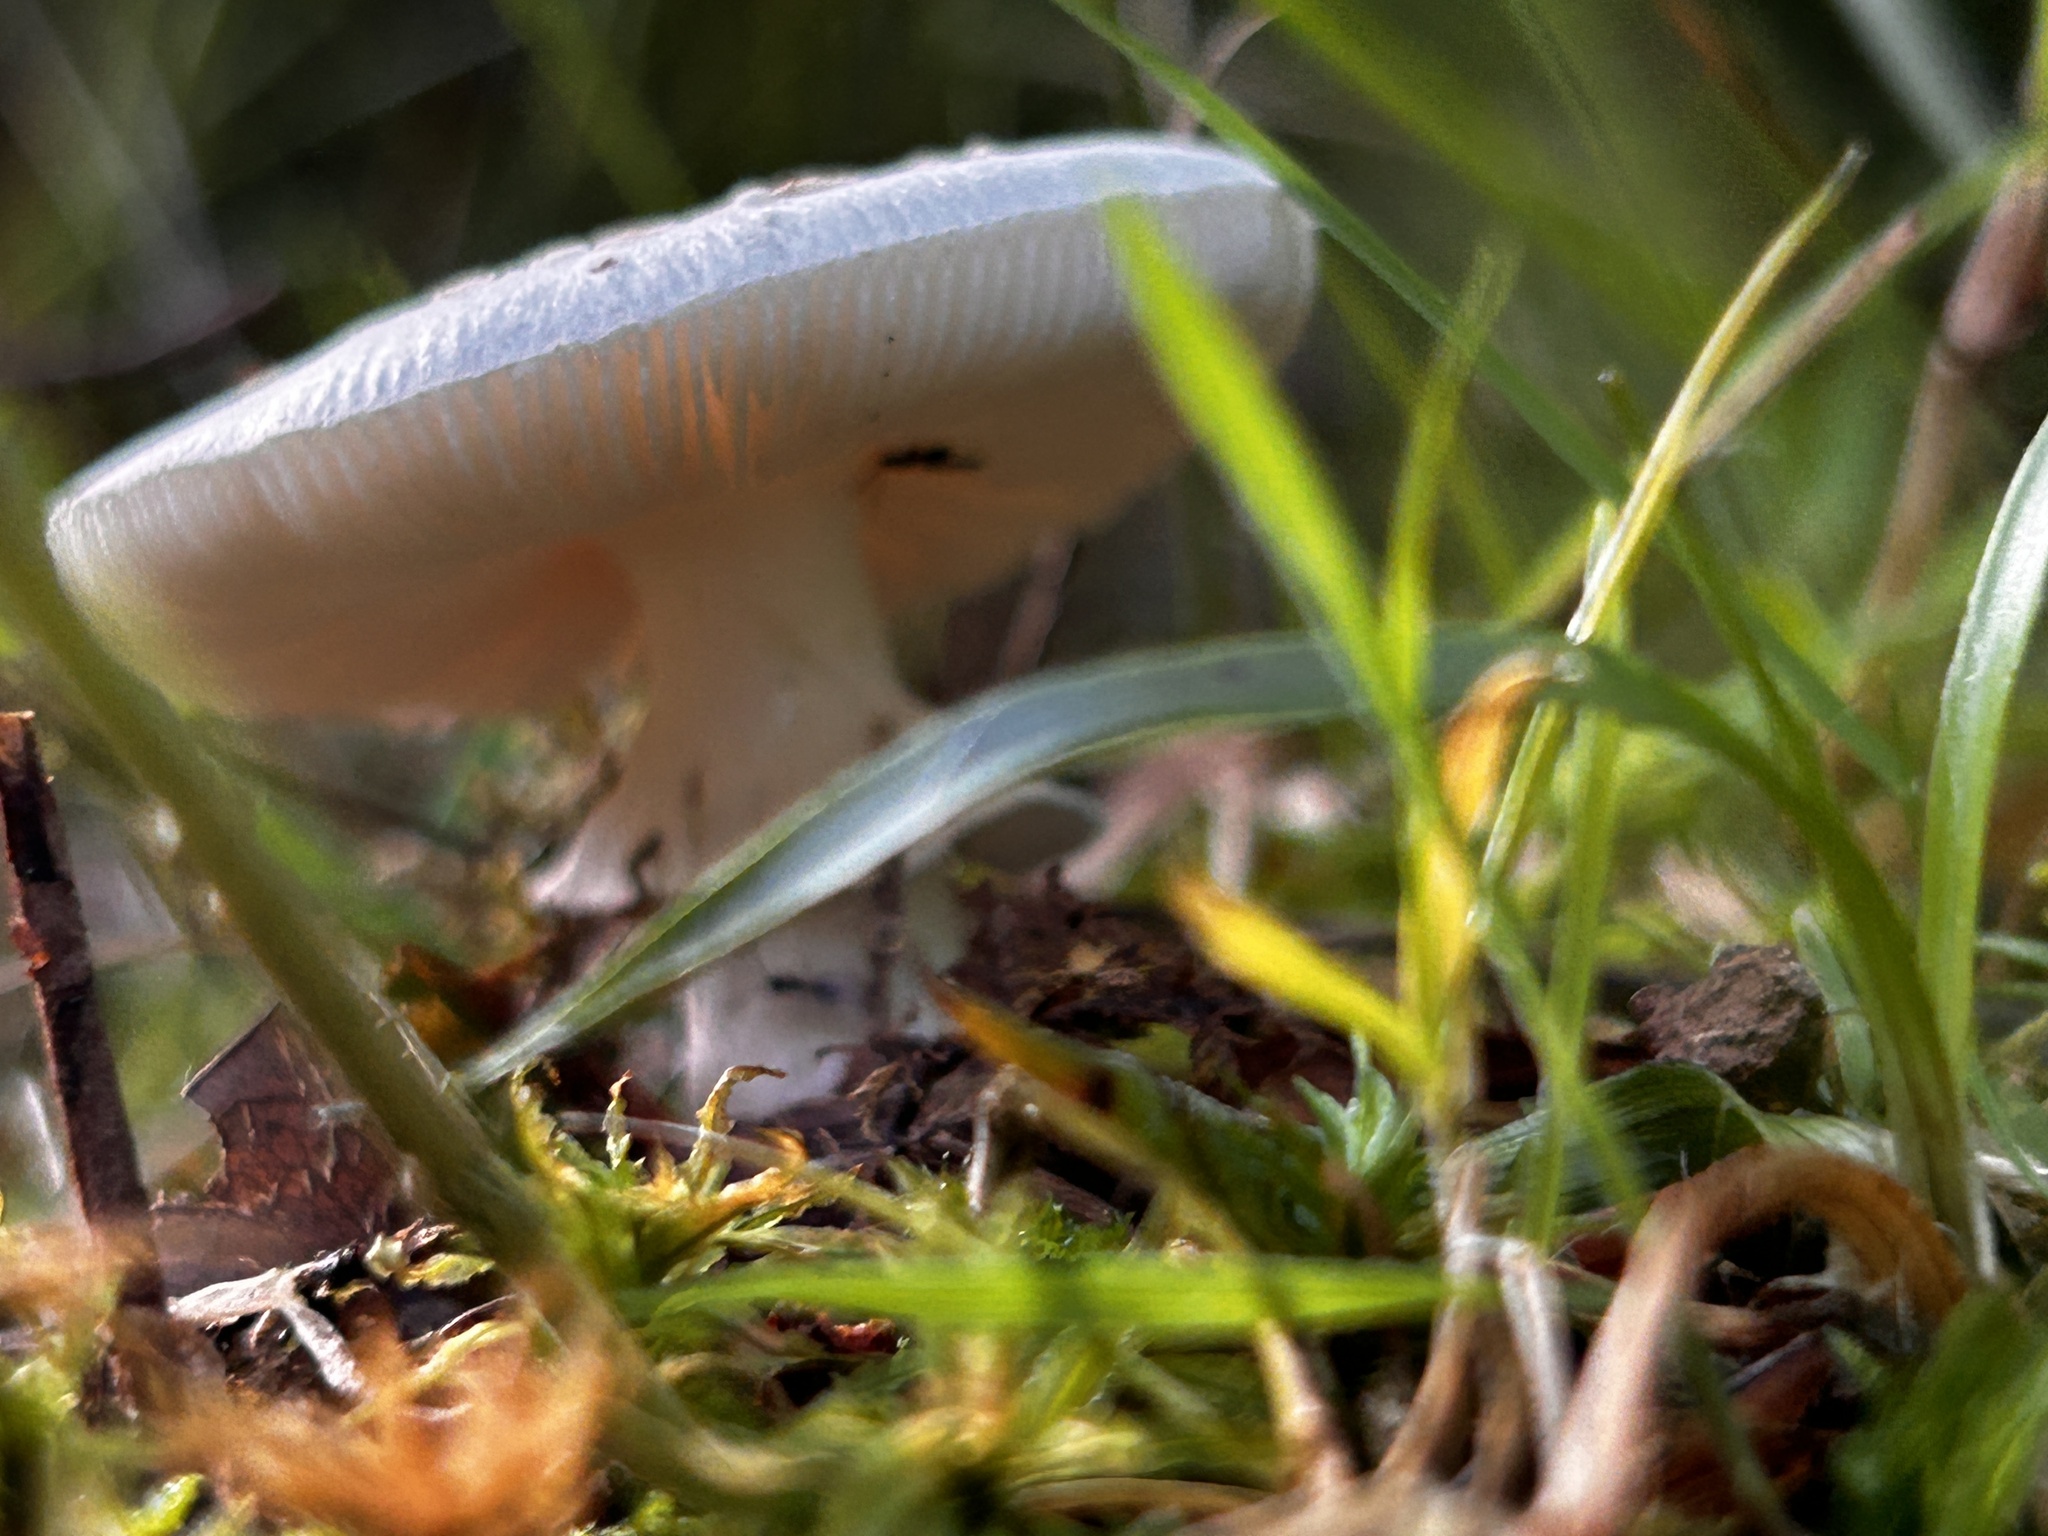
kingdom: Fungi
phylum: Basidiomycota
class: Agaricomycetes
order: Agaricales
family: Amanitaceae
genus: Amanita
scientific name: Amanita citrina
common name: False death-cap
